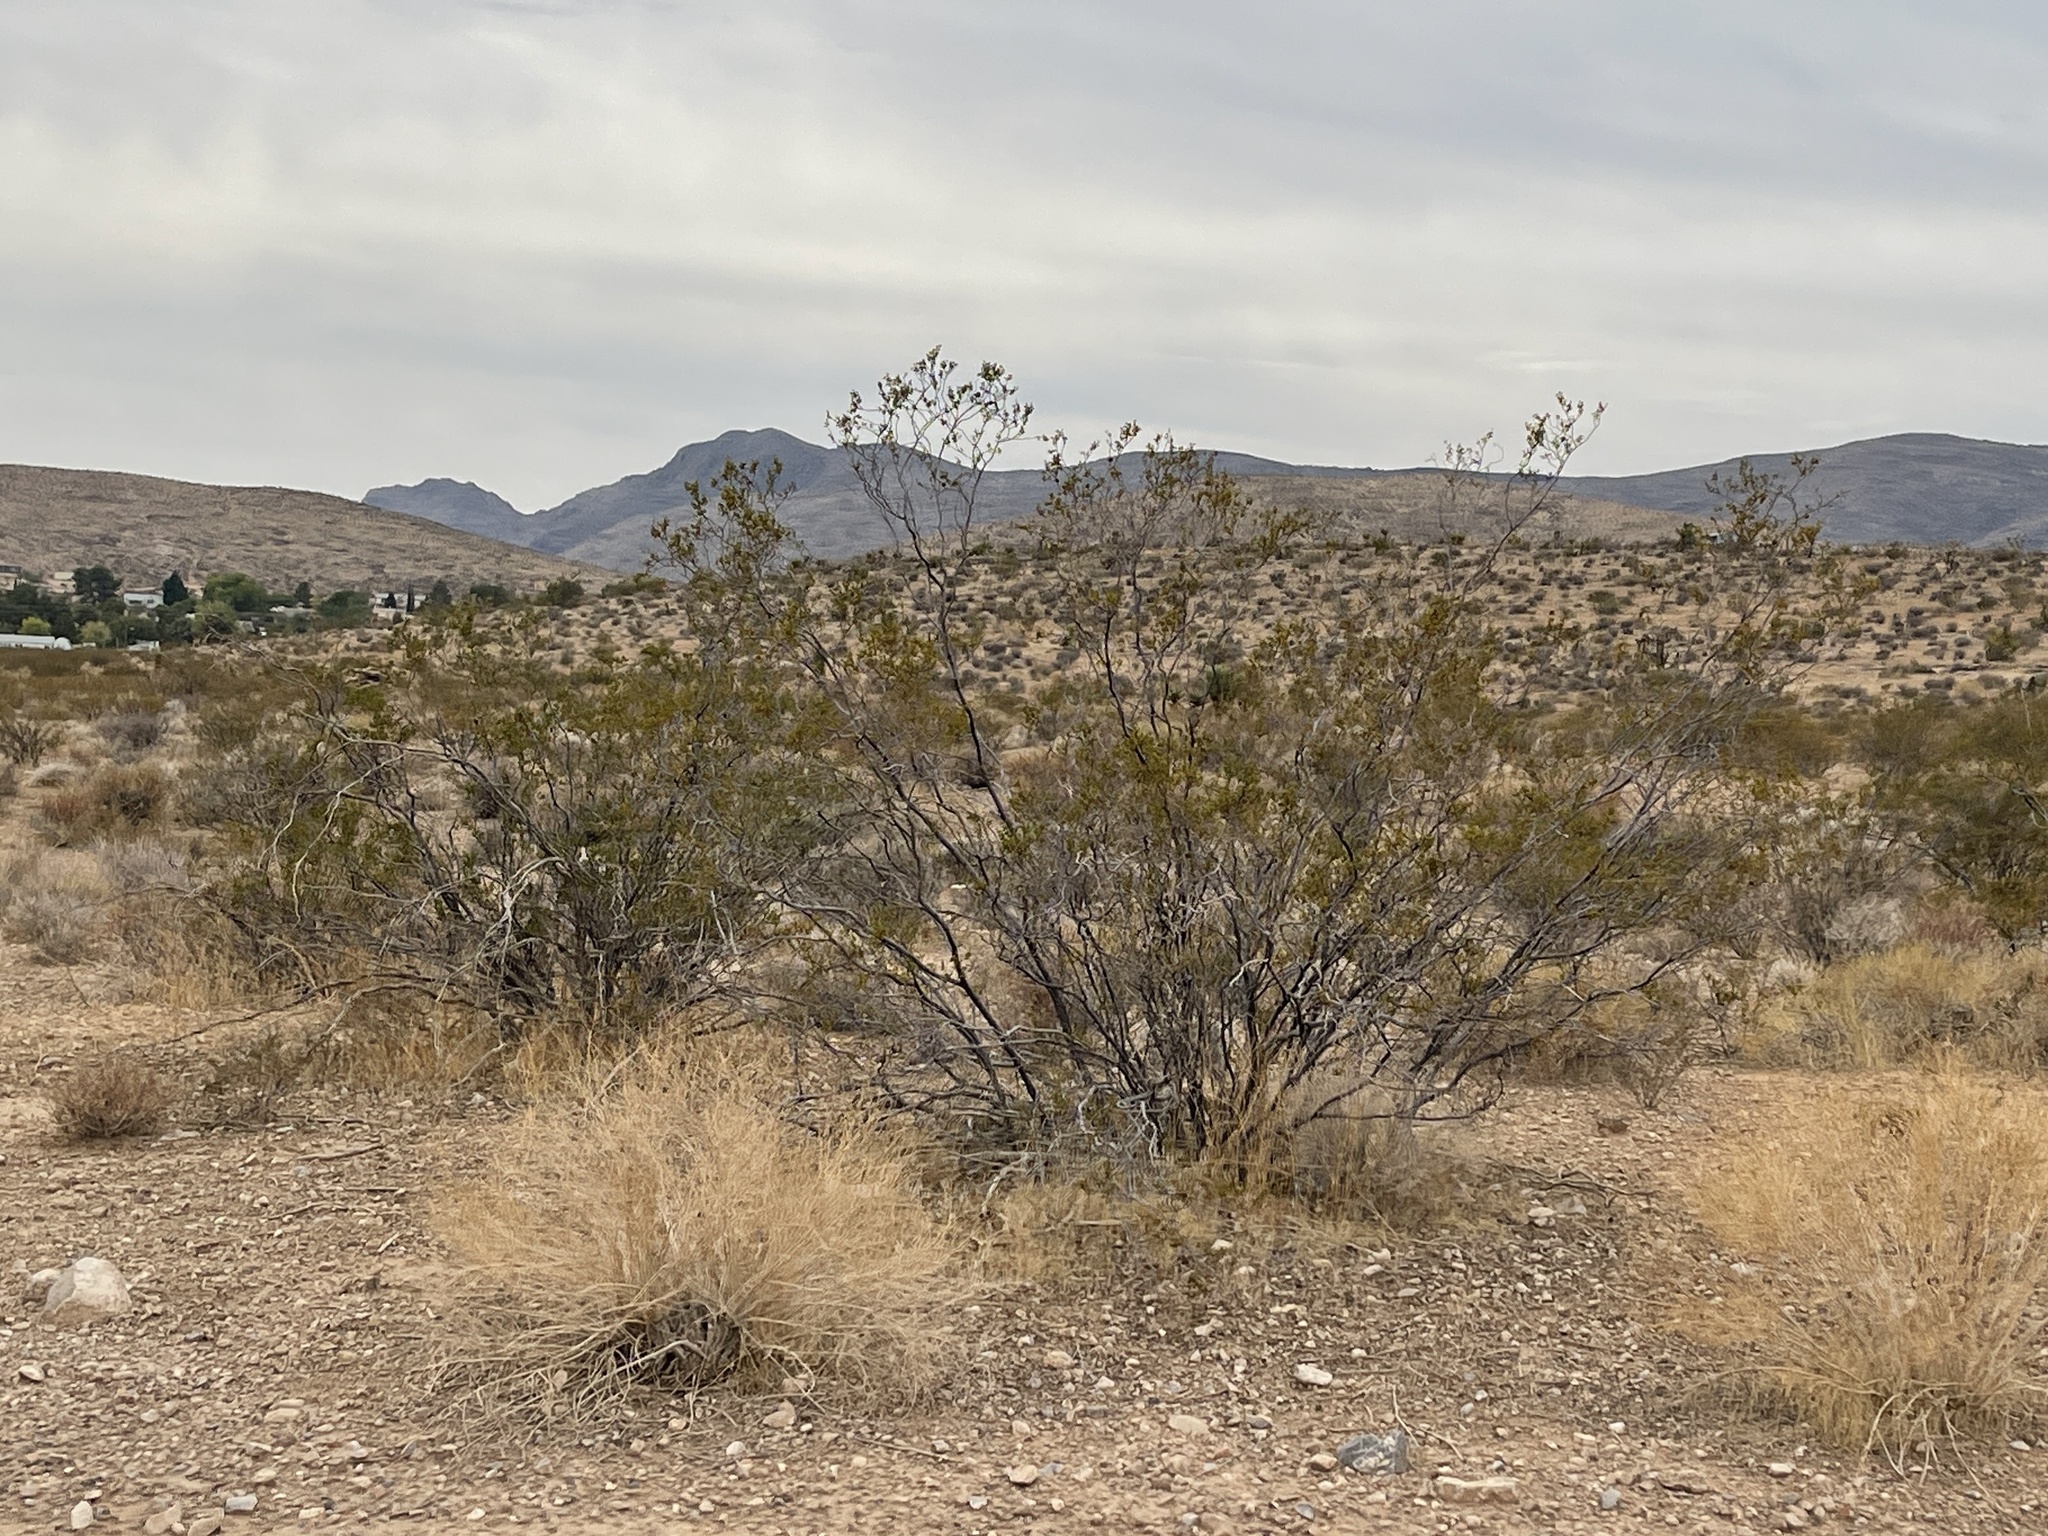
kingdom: Plantae
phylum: Tracheophyta
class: Magnoliopsida
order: Zygophyllales
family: Zygophyllaceae
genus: Larrea
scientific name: Larrea tridentata
